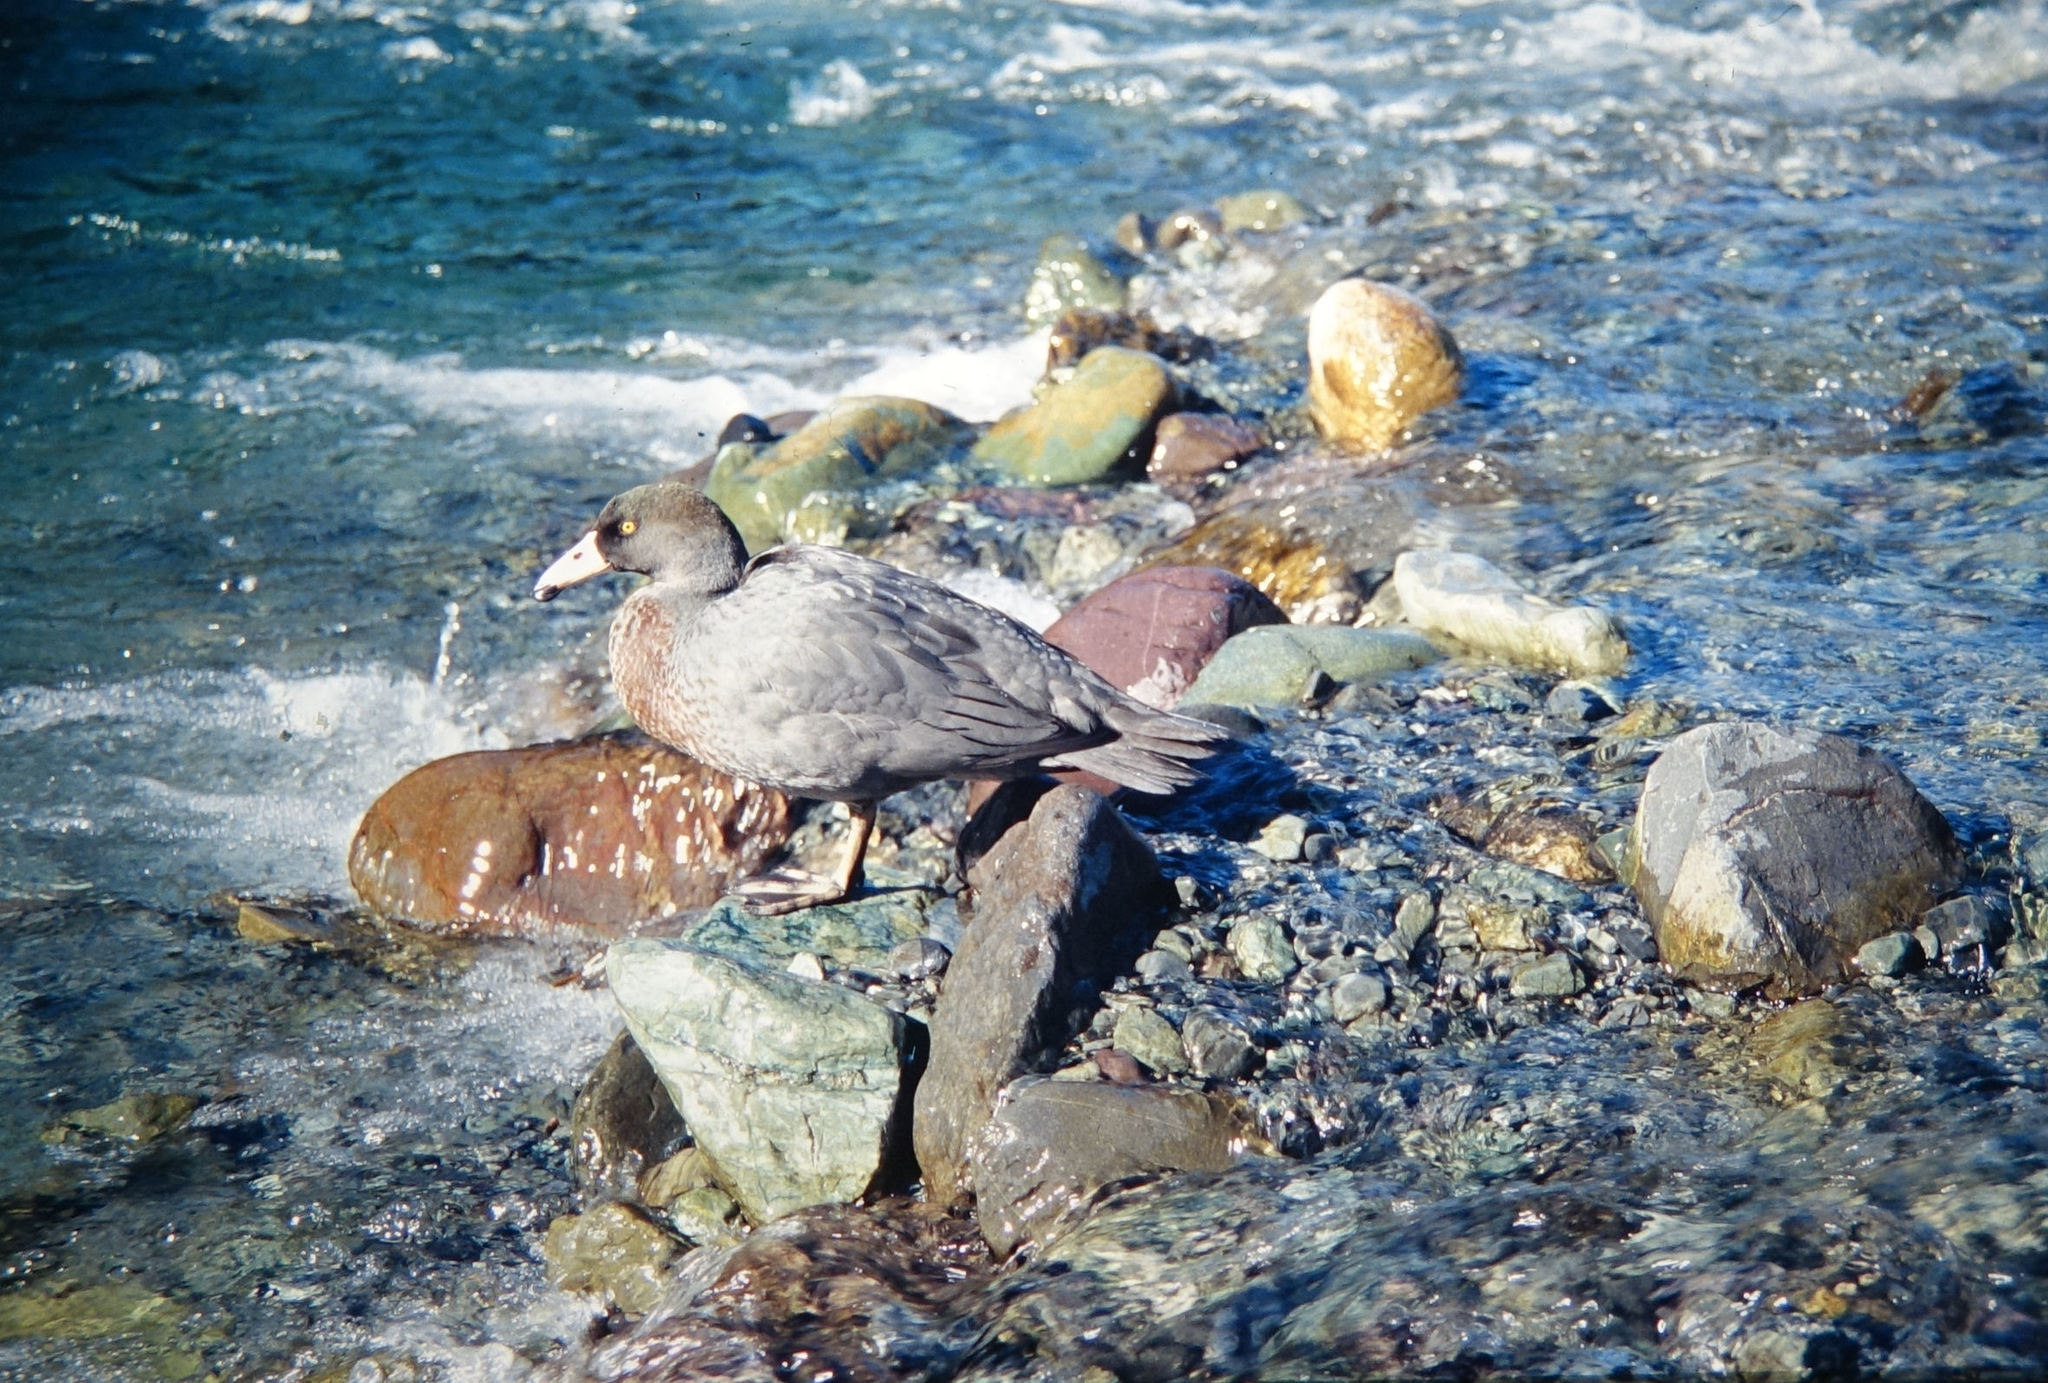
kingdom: Animalia
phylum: Chordata
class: Aves
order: Anseriformes
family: Anatidae
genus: Hymenolaimus
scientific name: Hymenolaimus malacorhynchos
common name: Blue duck
